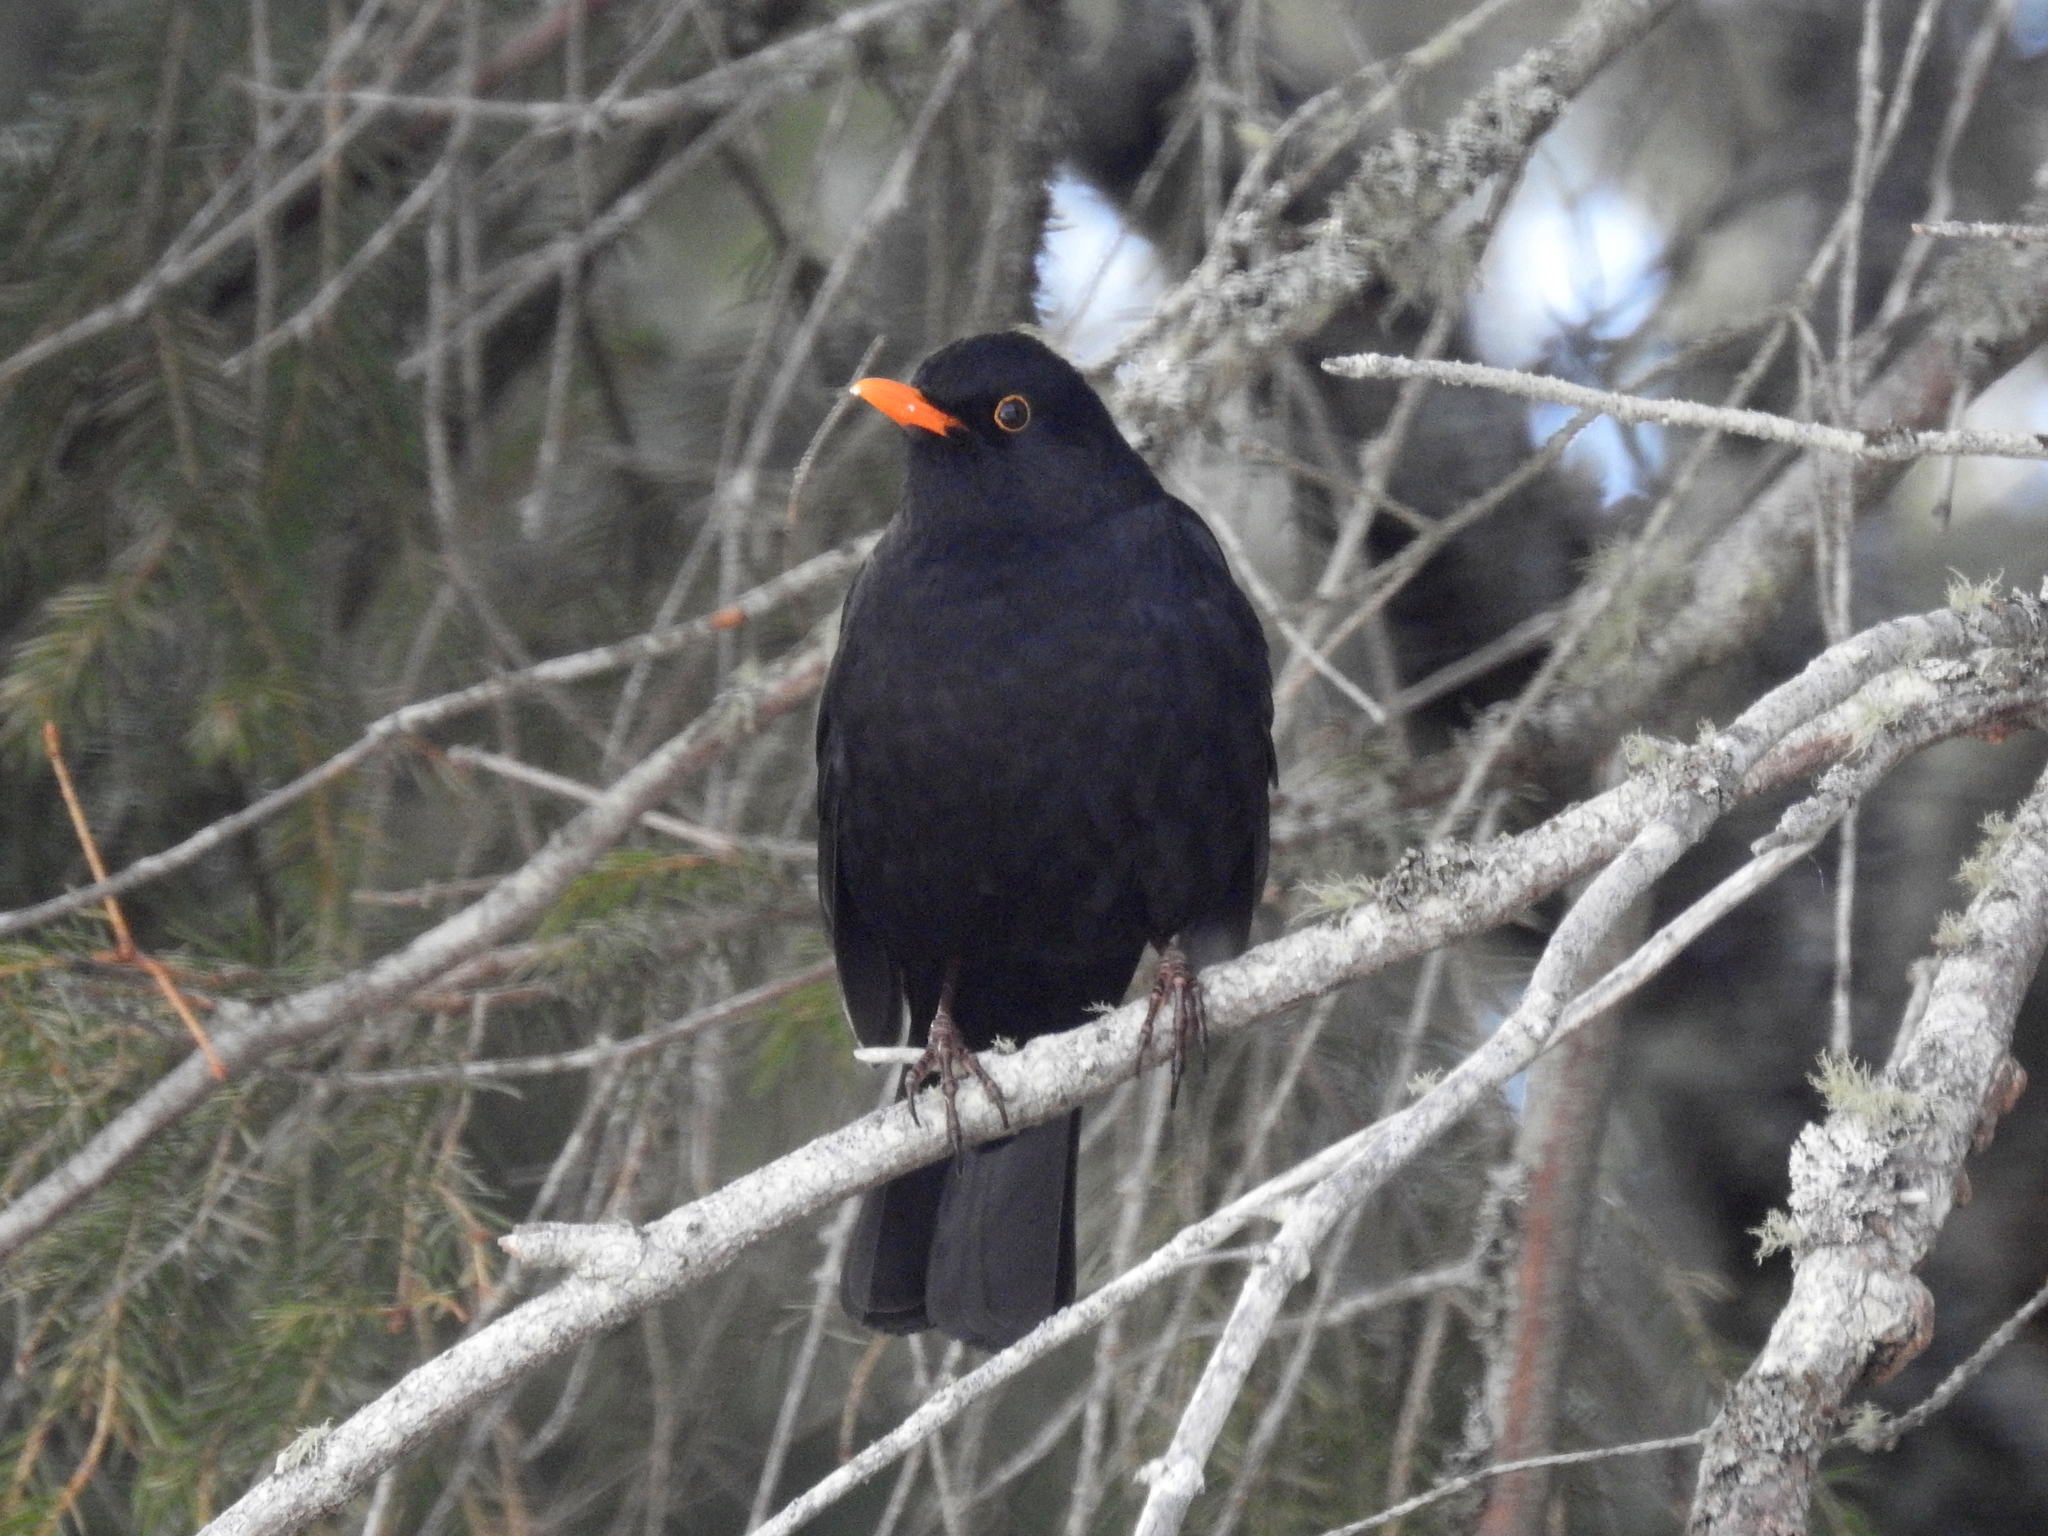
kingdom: Animalia
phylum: Chordata
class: Aves
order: Passeriformes
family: Turdidae
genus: Turdus
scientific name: Turdus merula
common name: Common blackbird
